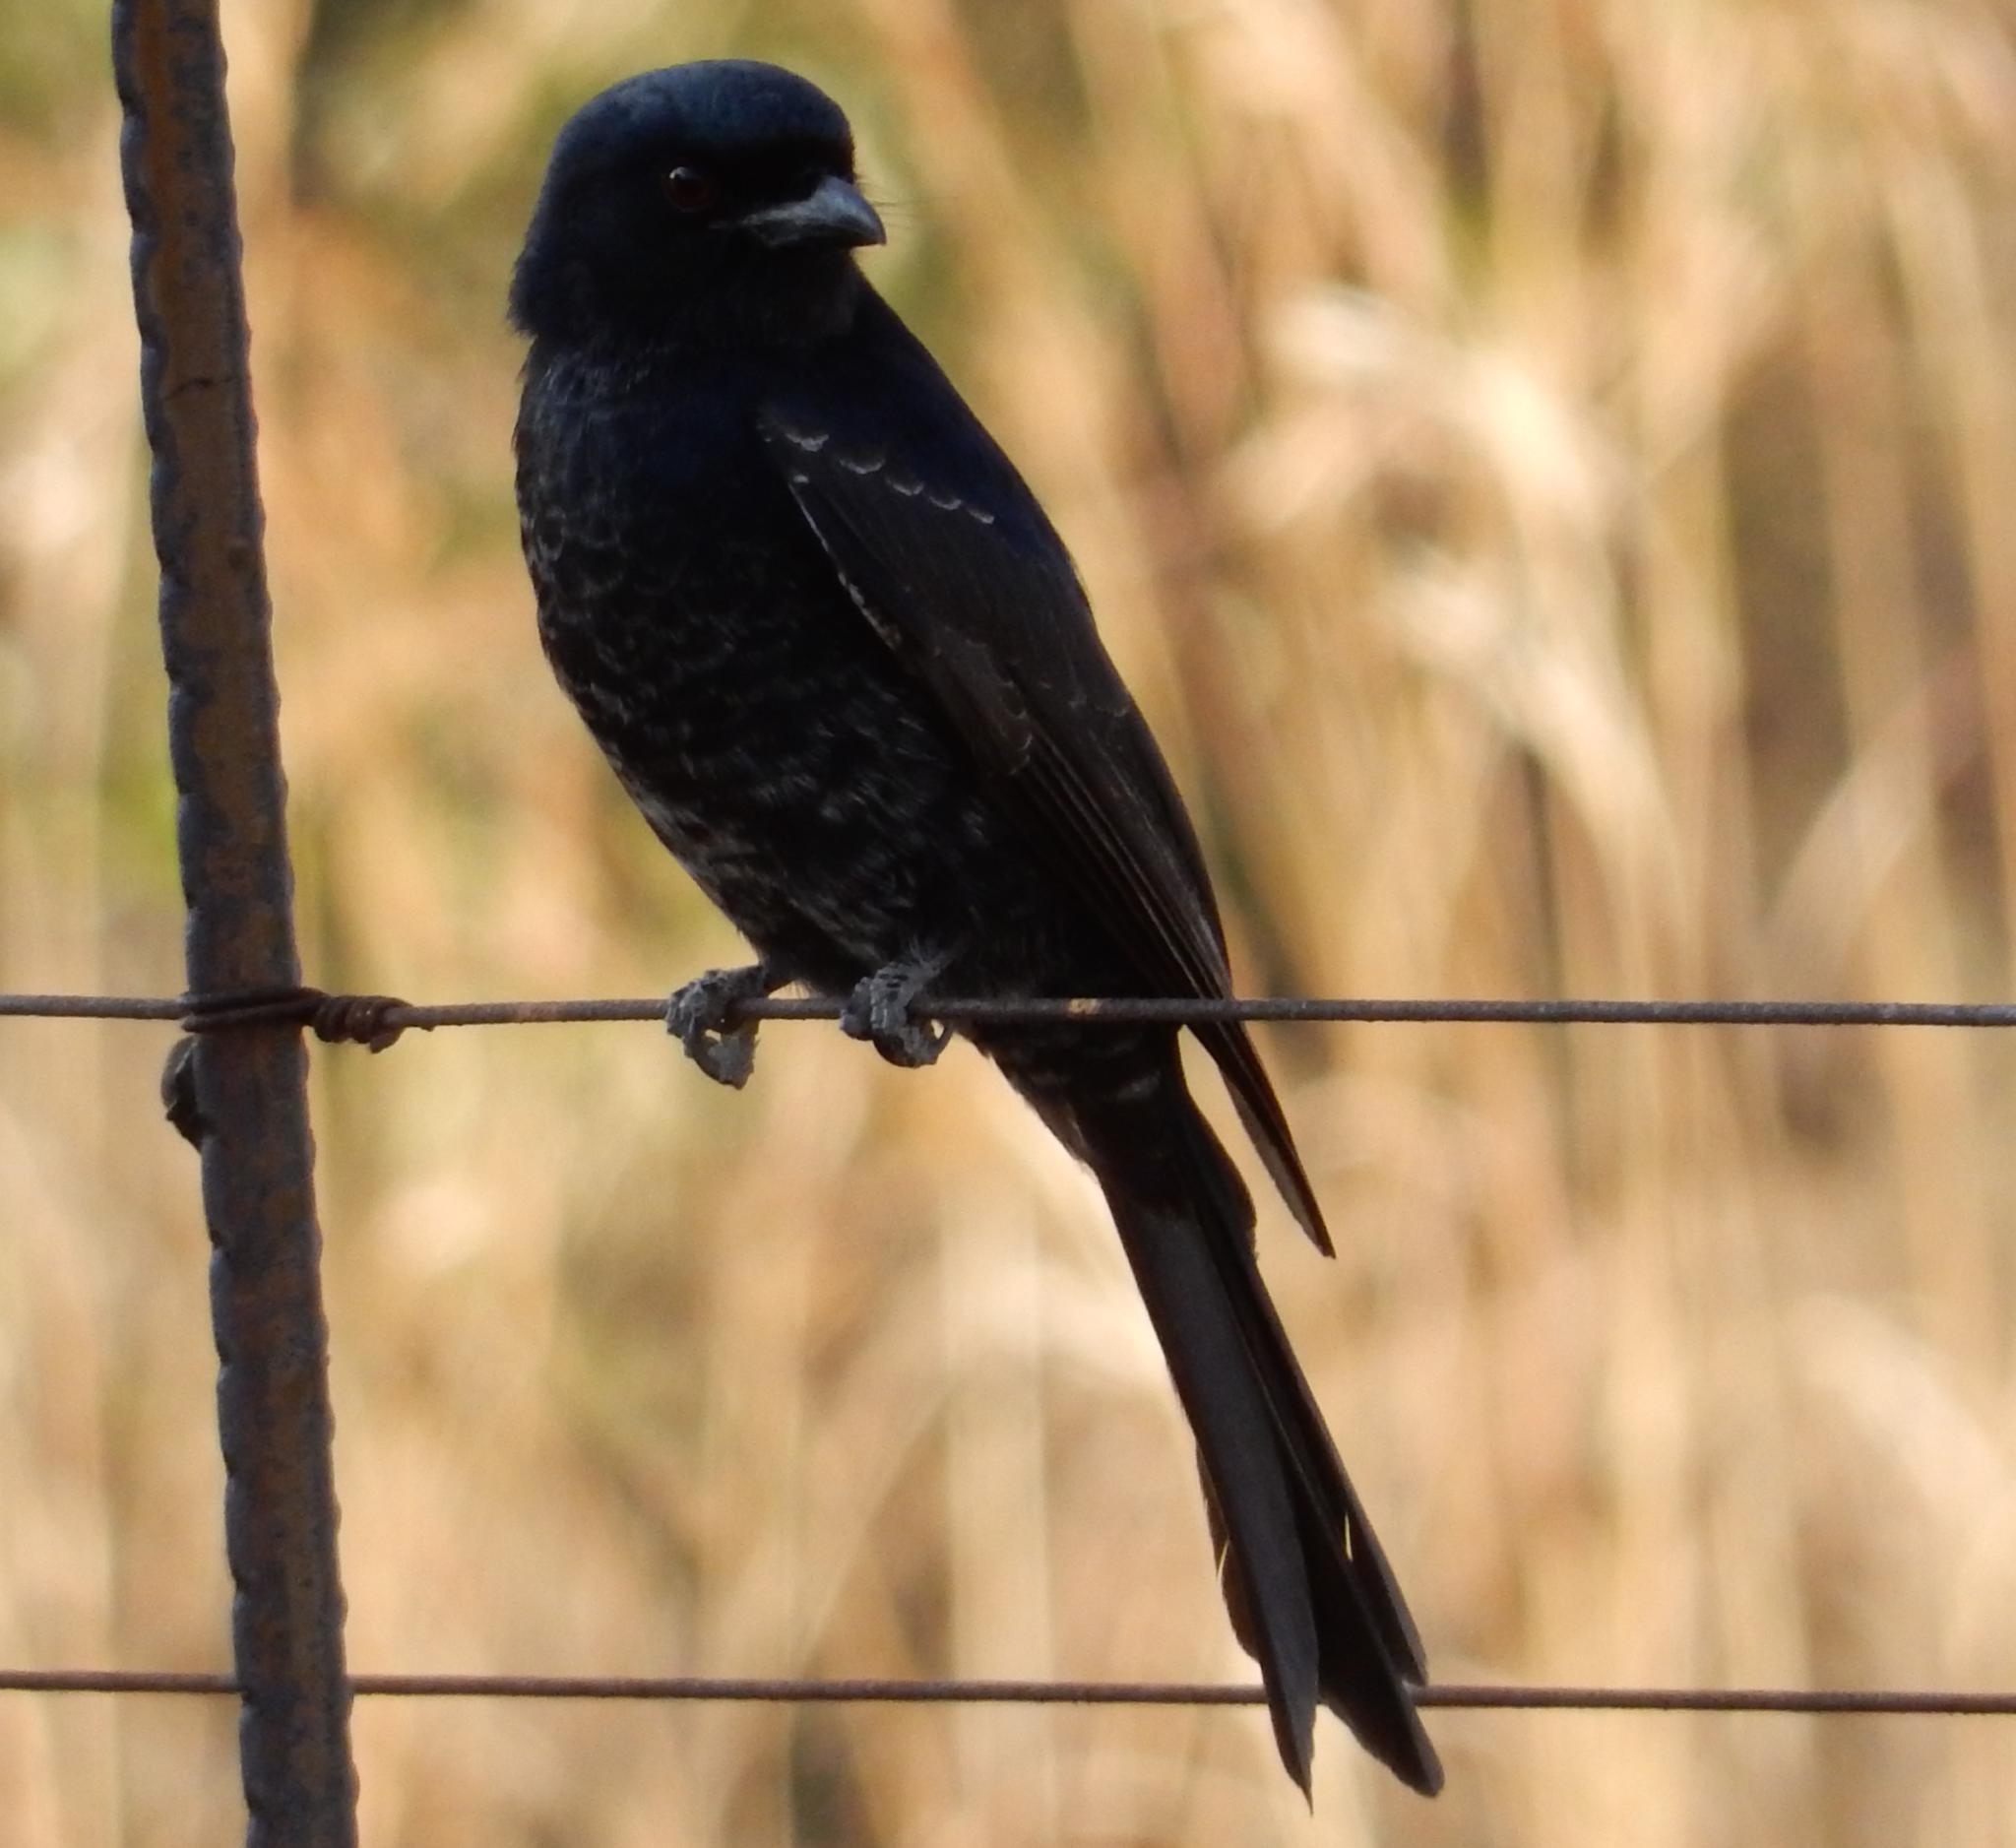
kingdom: Animalia
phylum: Chordata
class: Aves
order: Passeriformes
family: Dicruridae
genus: Dicrurus
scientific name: Dicrurus adsimilis
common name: Fork-tailed drongo
